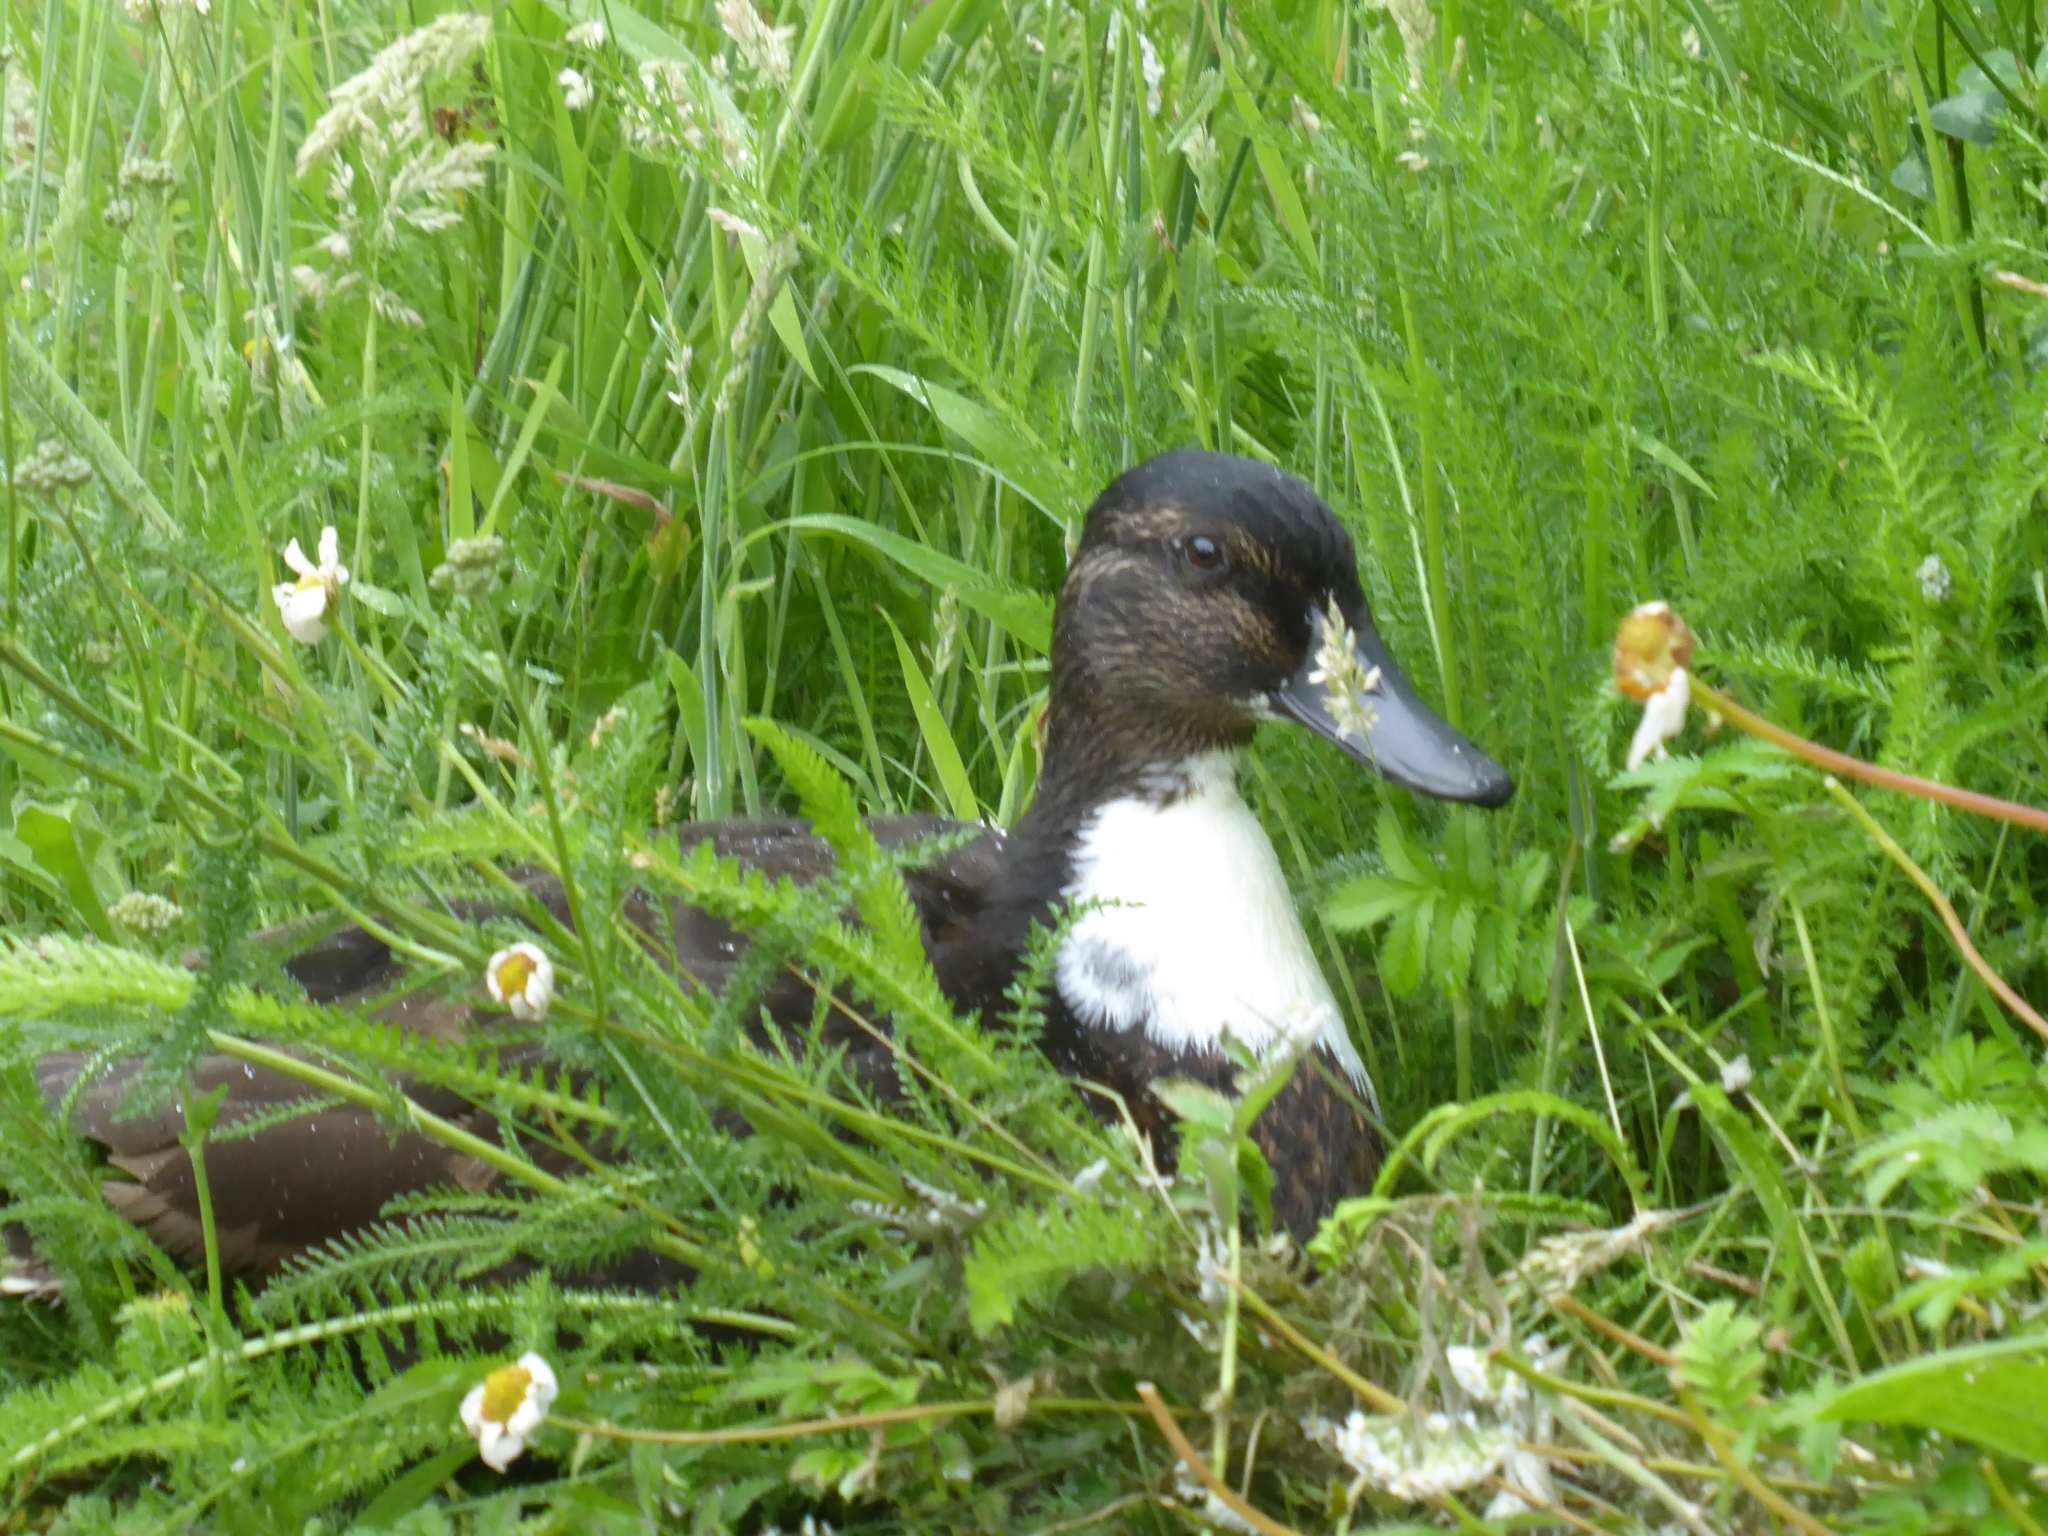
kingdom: Animalia
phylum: Chordata
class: Aves
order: Anseriformes
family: Anatidae
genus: Anas
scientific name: Anas platyrhynchos
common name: Mallard
